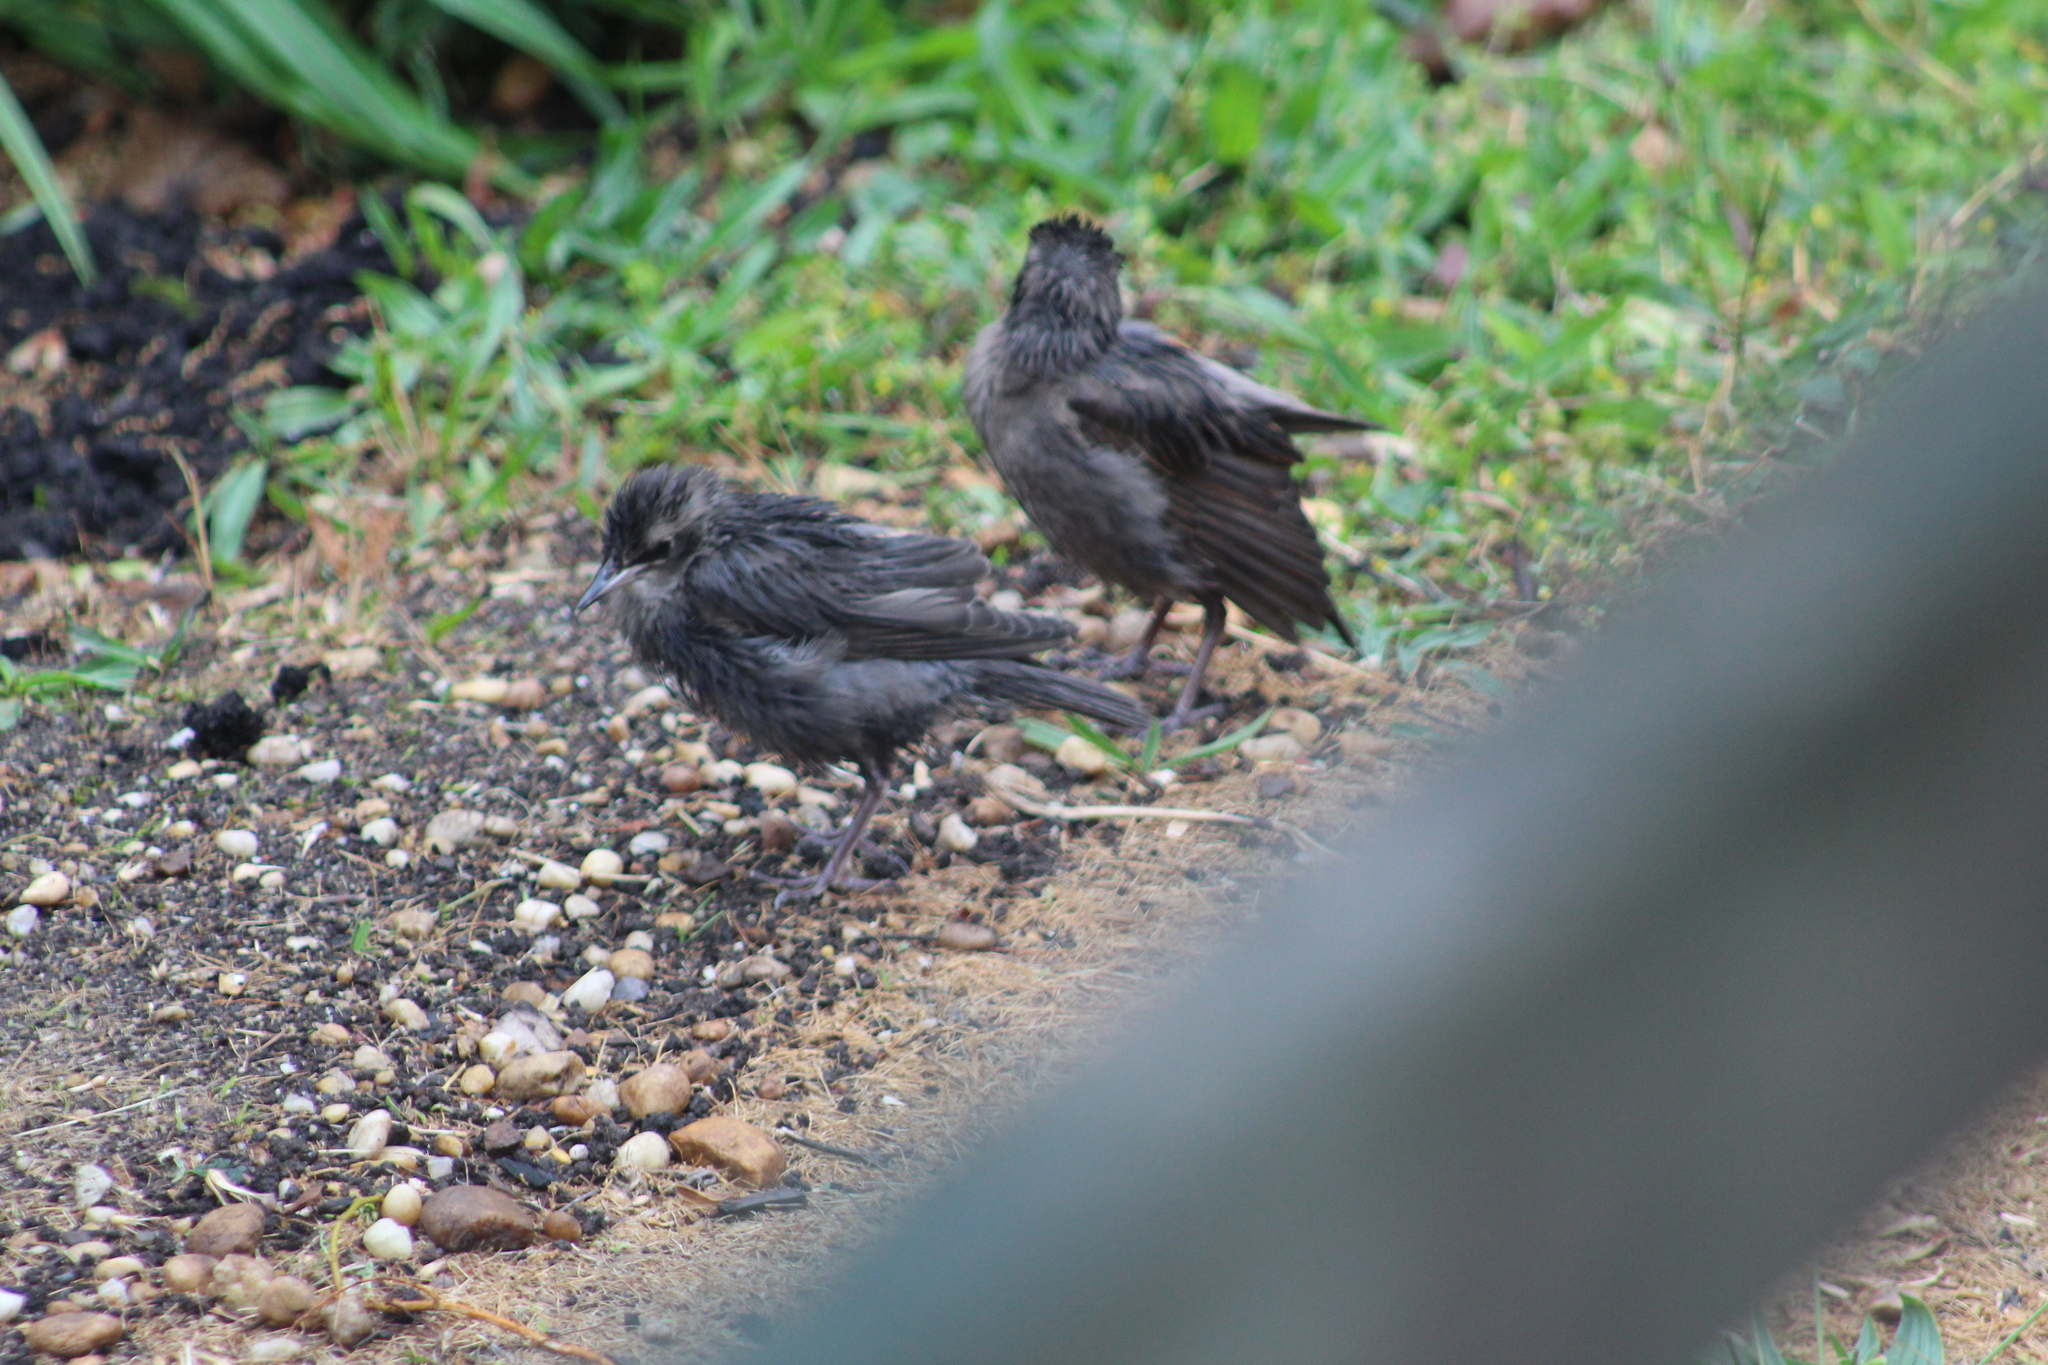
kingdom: Animalia
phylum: Chordata
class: Aves
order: Passeriformes
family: Sturnidae
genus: Sturnus
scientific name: Sturnus vulgaris
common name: Common starling
